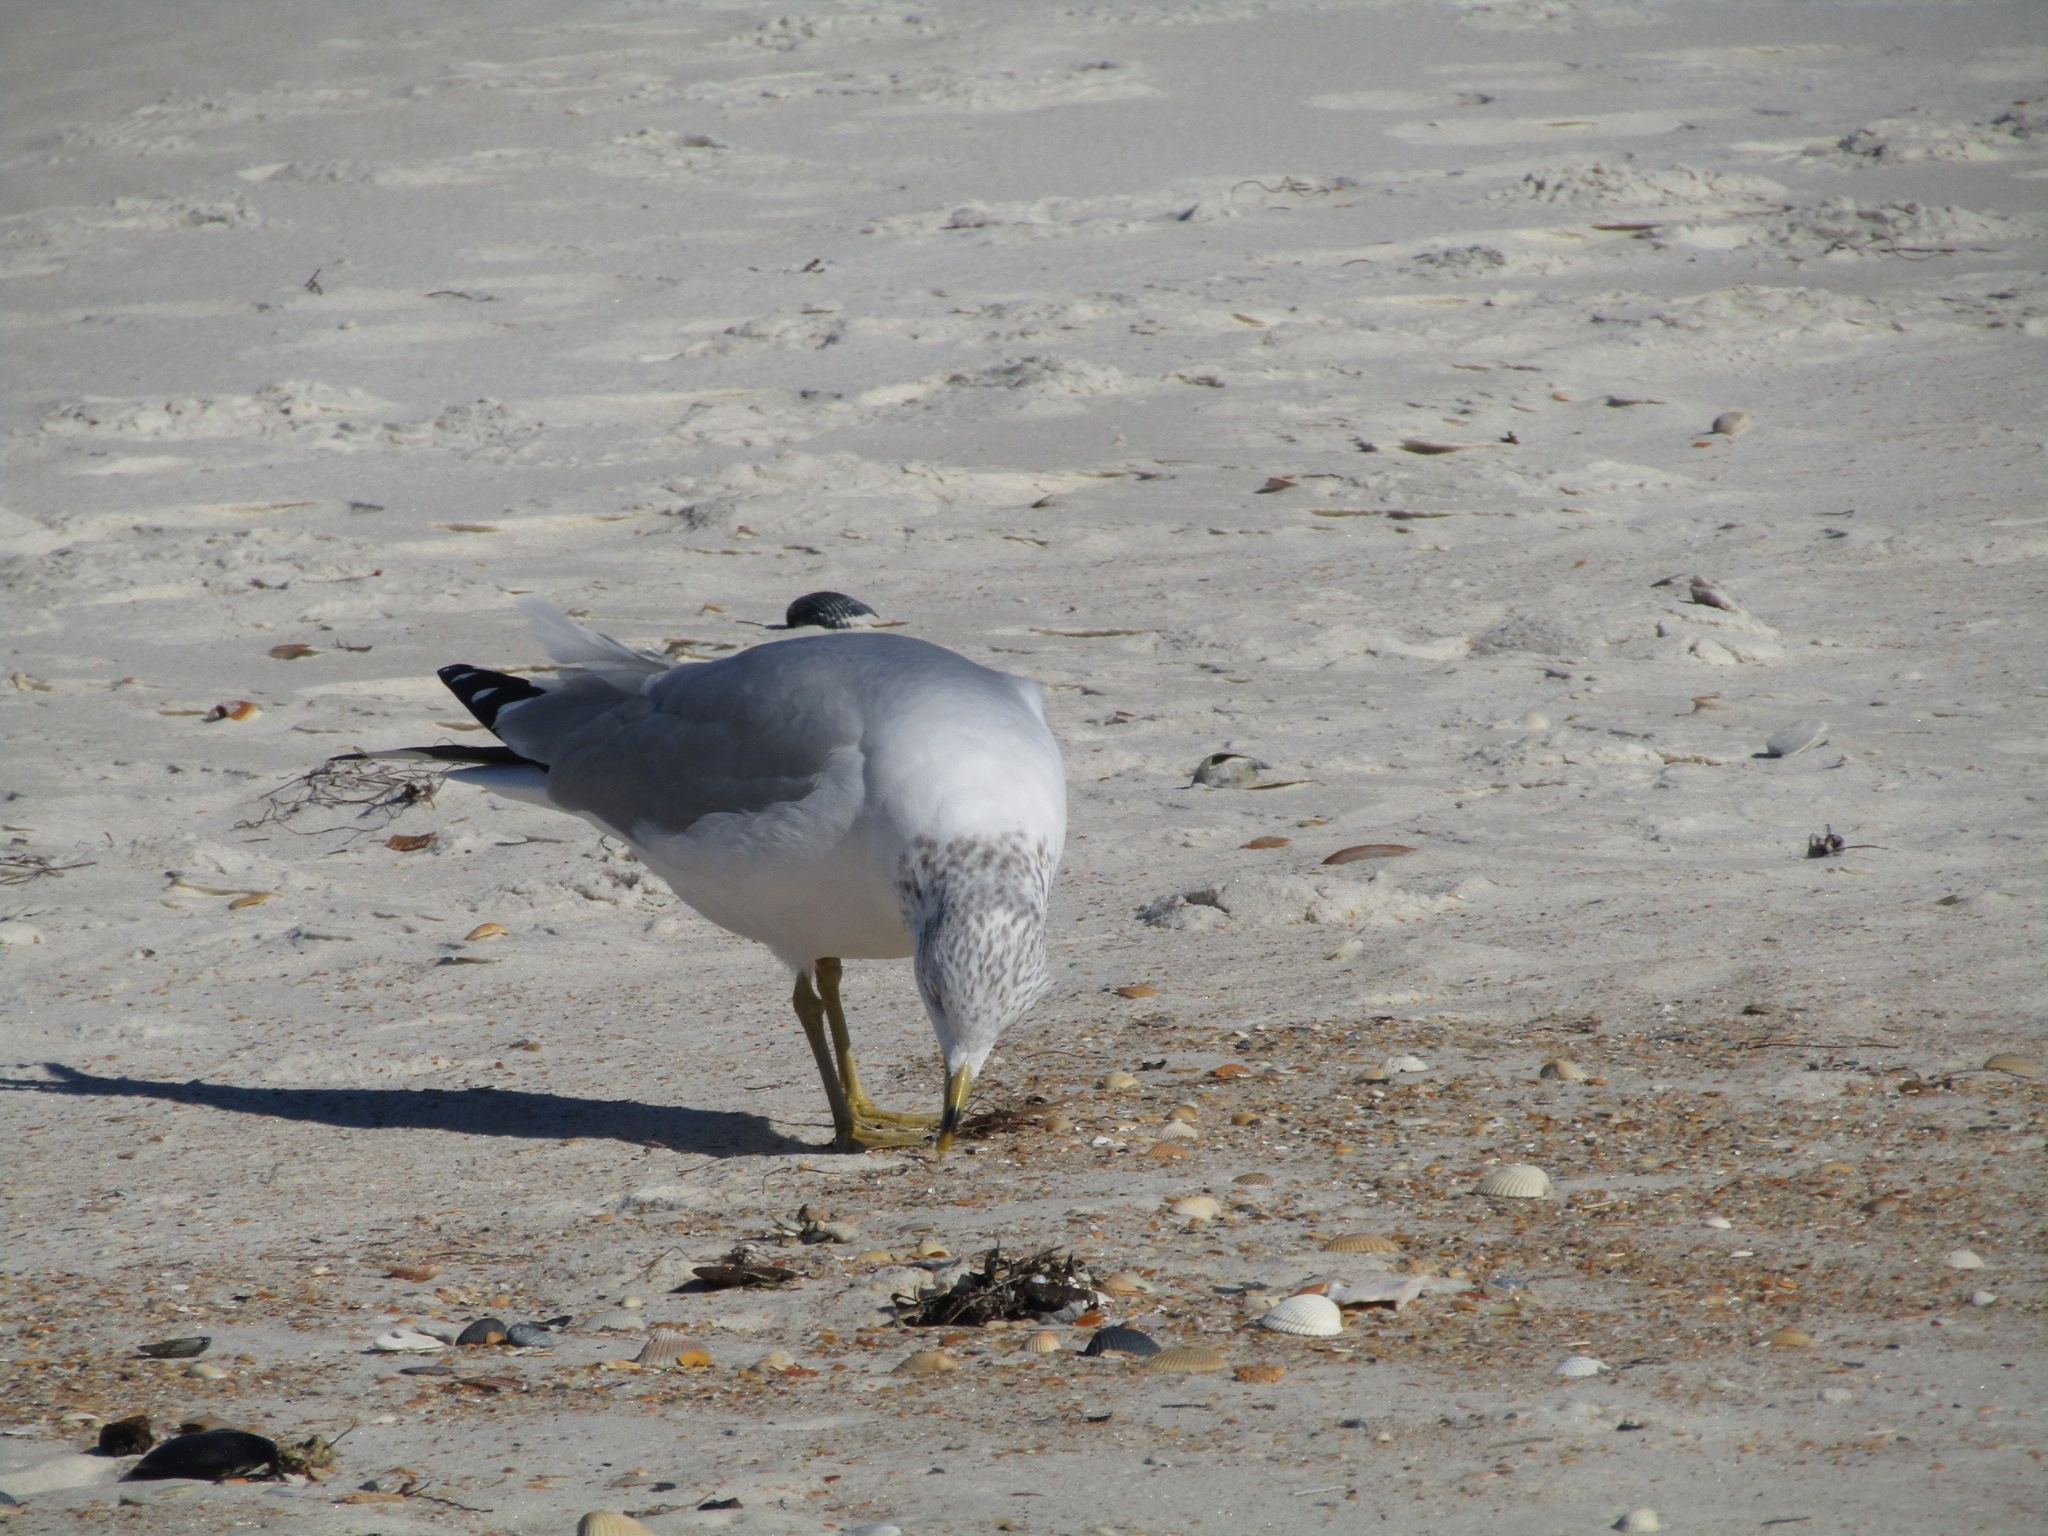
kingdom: Animalia
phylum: Chordata
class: Aves
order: Charadriiformes
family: Laridae
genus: Larus
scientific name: Larus delawarensis
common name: Ring-billed gull
